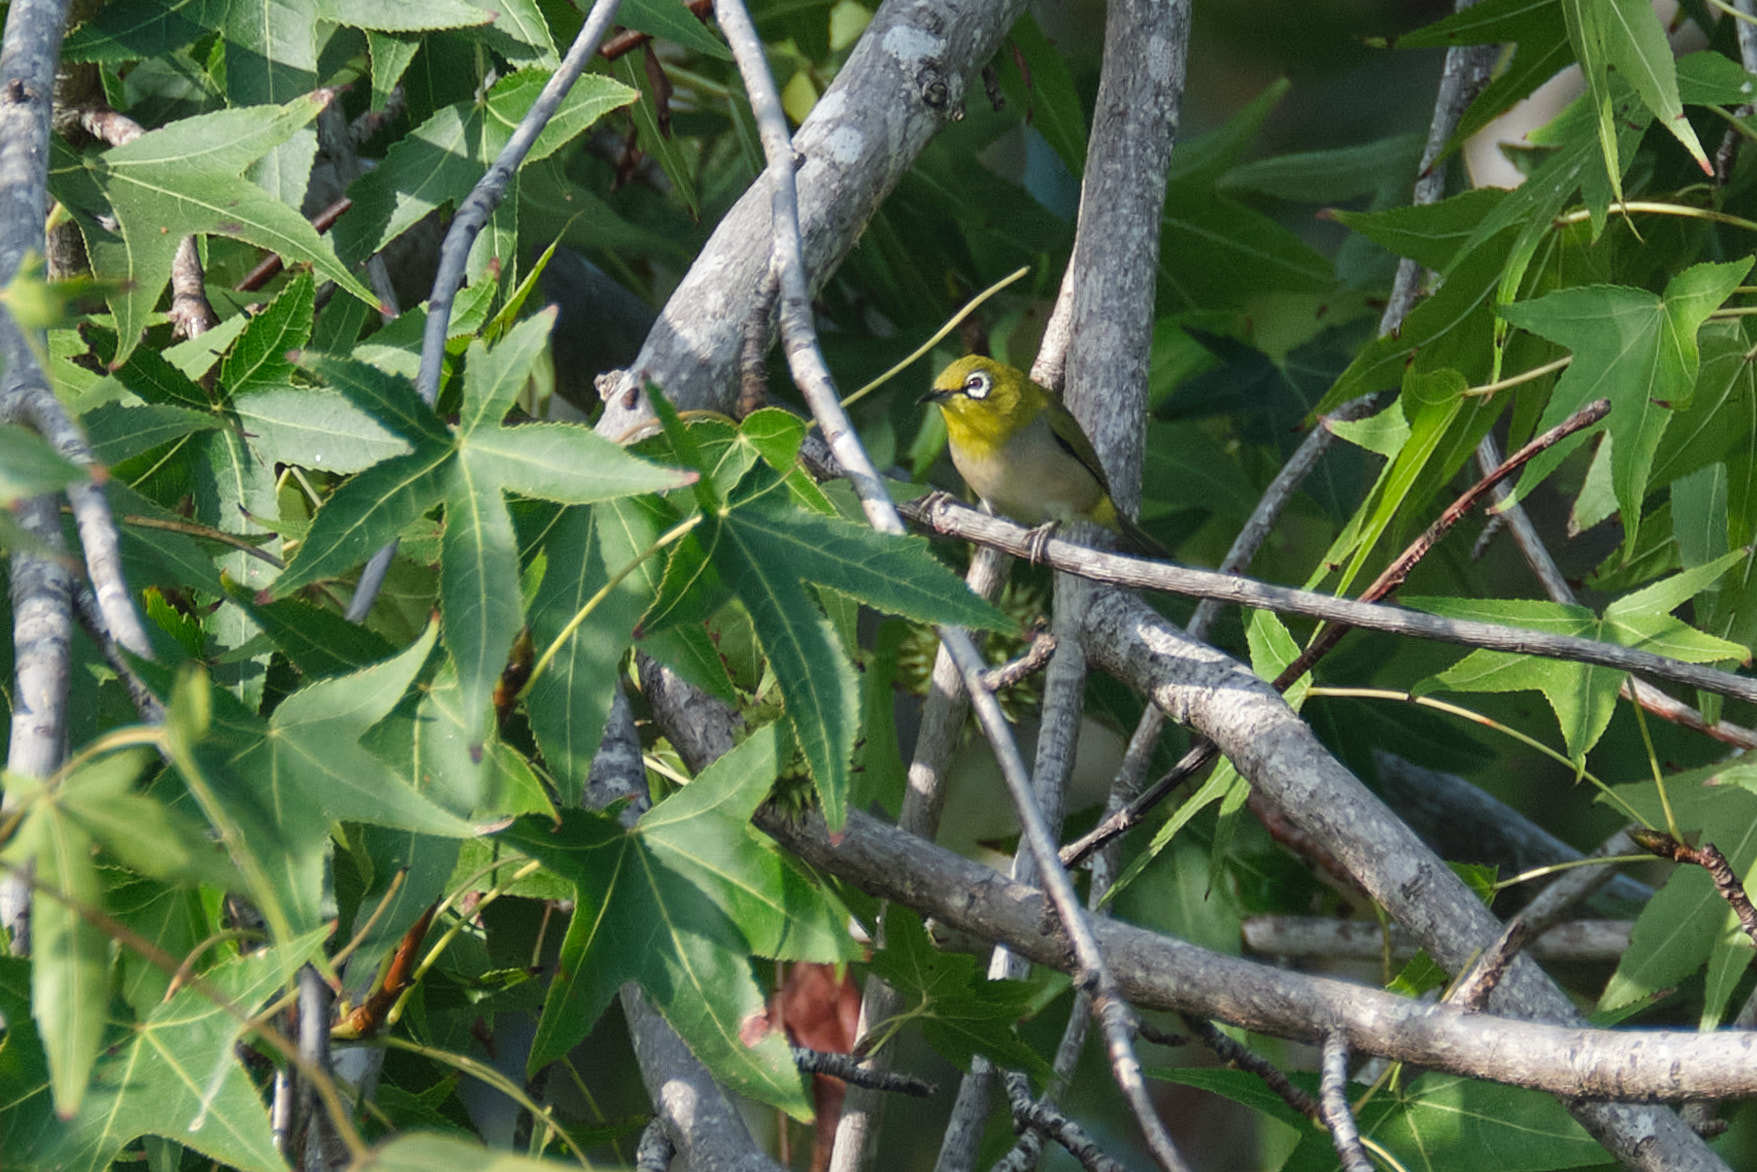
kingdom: Animalia
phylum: Chordata
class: Aves
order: Passeriformes
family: Zosteropidae
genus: Zosterops
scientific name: Zosterops simplex
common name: Swinhoe's white-eye
